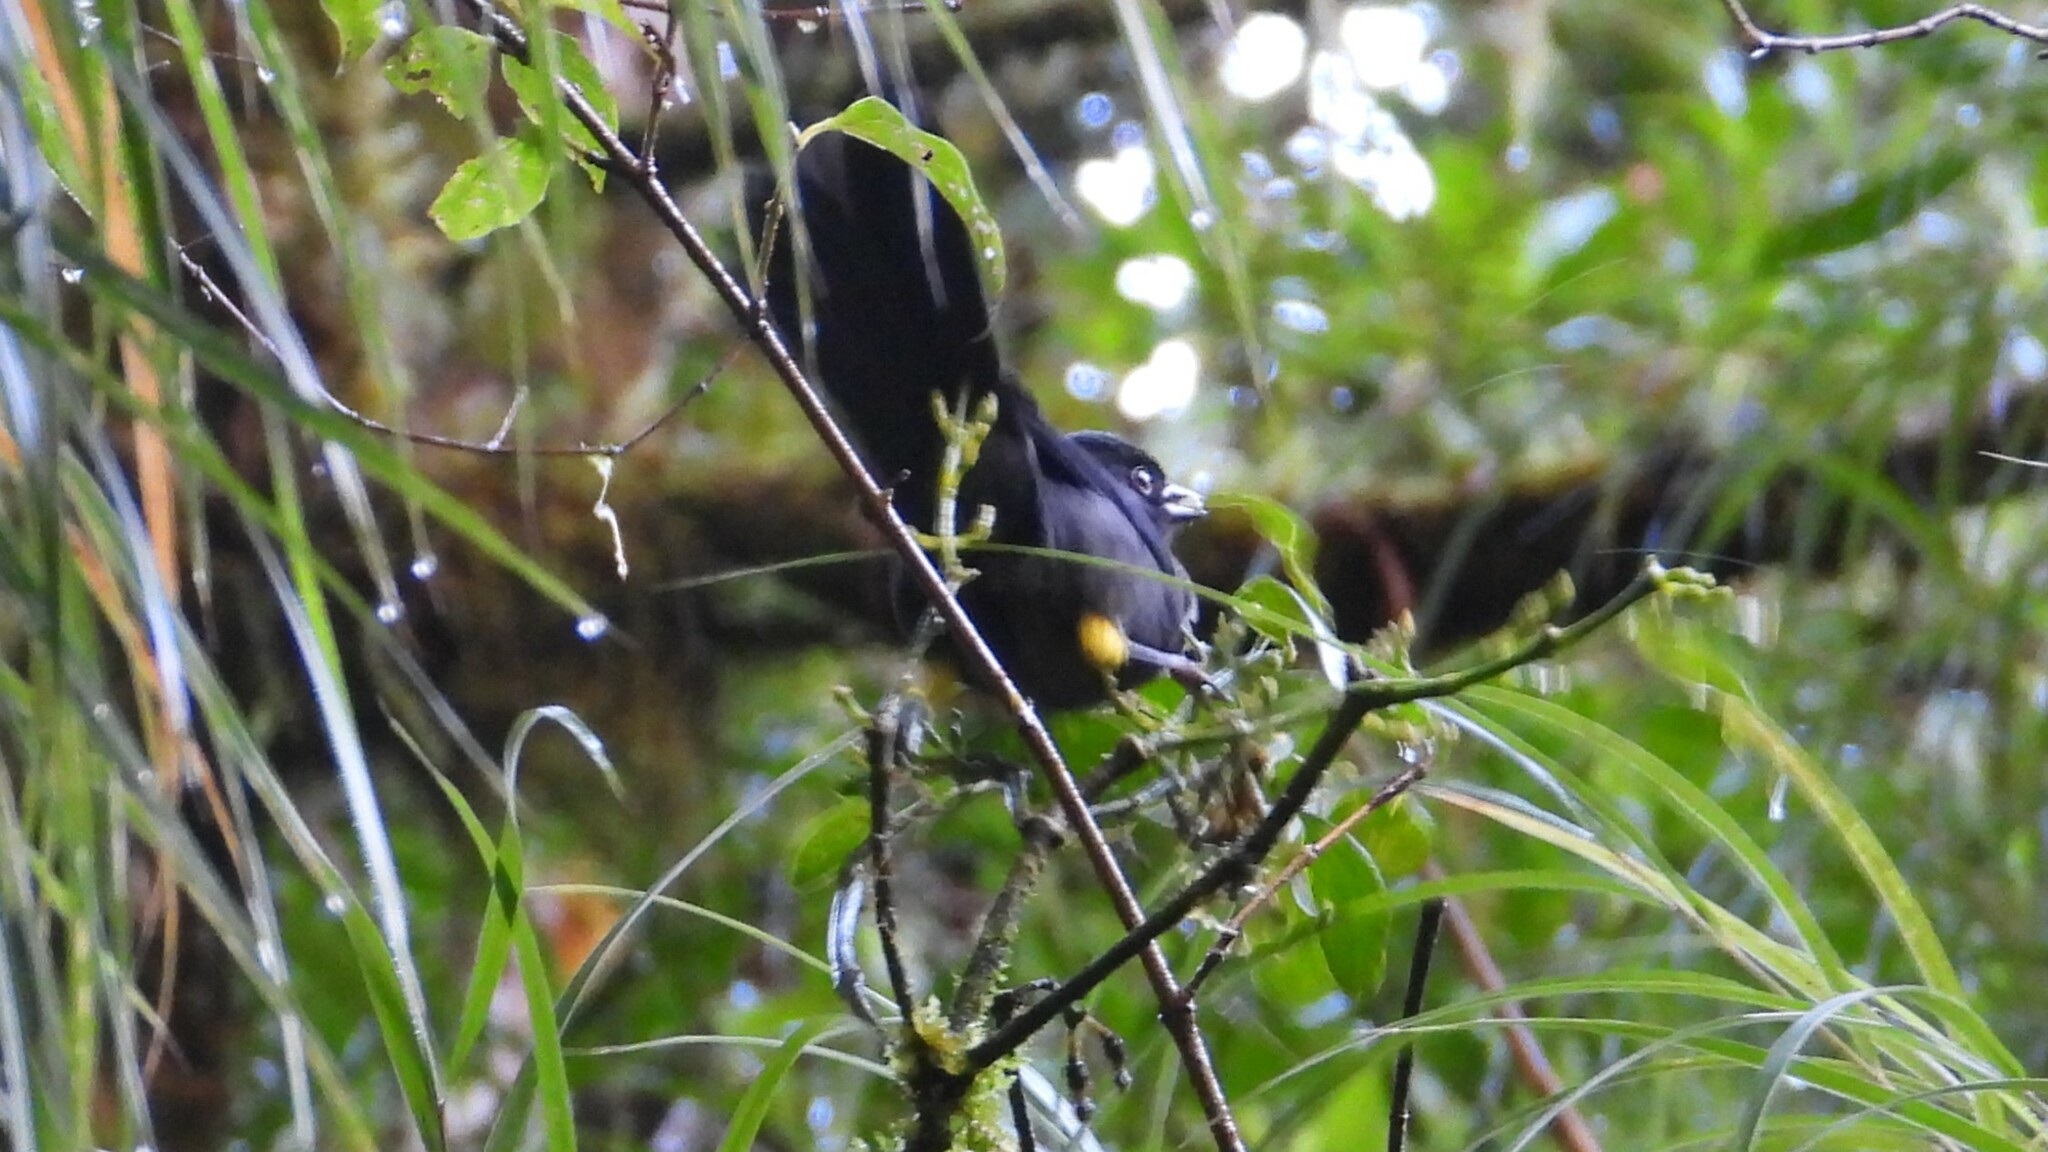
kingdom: Animalia
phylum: Chordata
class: Aves
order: Passeriformes
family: Passerellidae
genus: Atlapetes
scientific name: Atlapetes tibialis
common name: Yellow-thighed brushfinch
